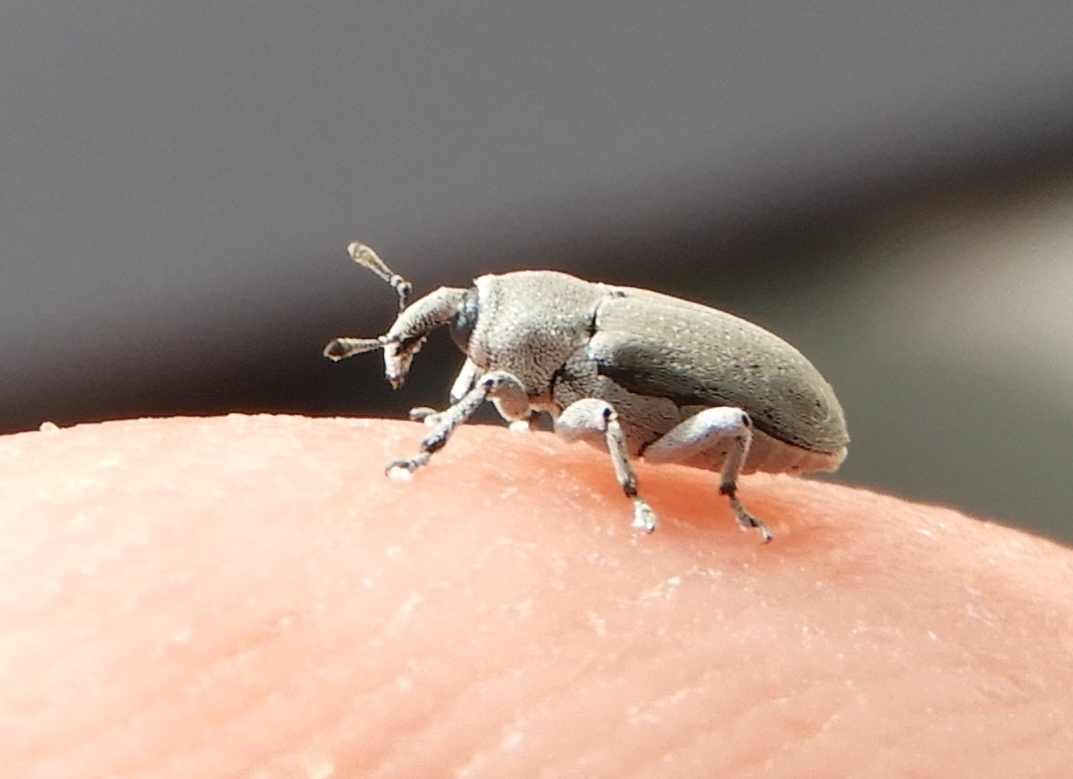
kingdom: Animalia
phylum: Arthropoda
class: Insecta
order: Coleoptera
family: Curculionidae
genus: Trichobaris
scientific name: Trichobaris
